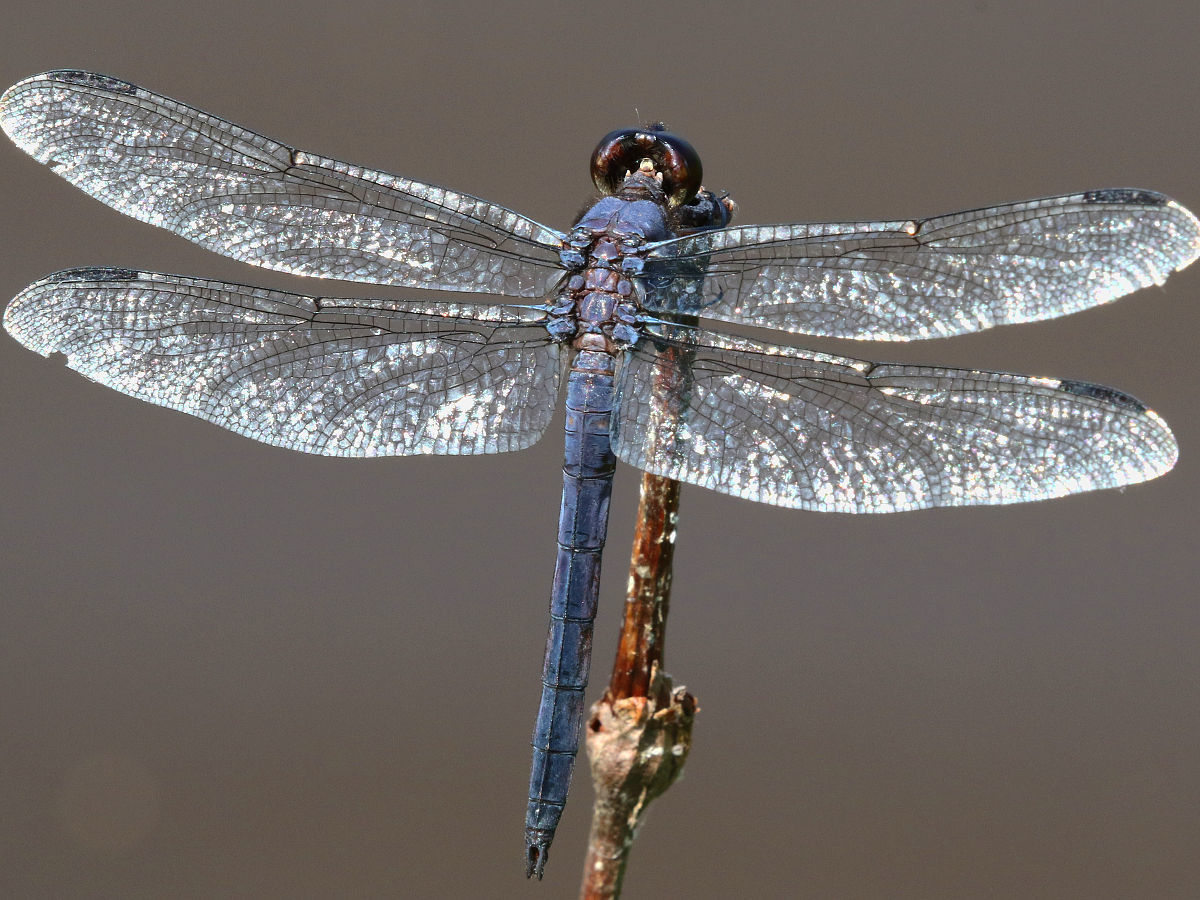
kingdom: Animalia
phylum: Arthropoda
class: Insecta
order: Odonata
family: Libellulidae
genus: Libellula
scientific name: Libellula incesta
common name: Slaty skimmer
